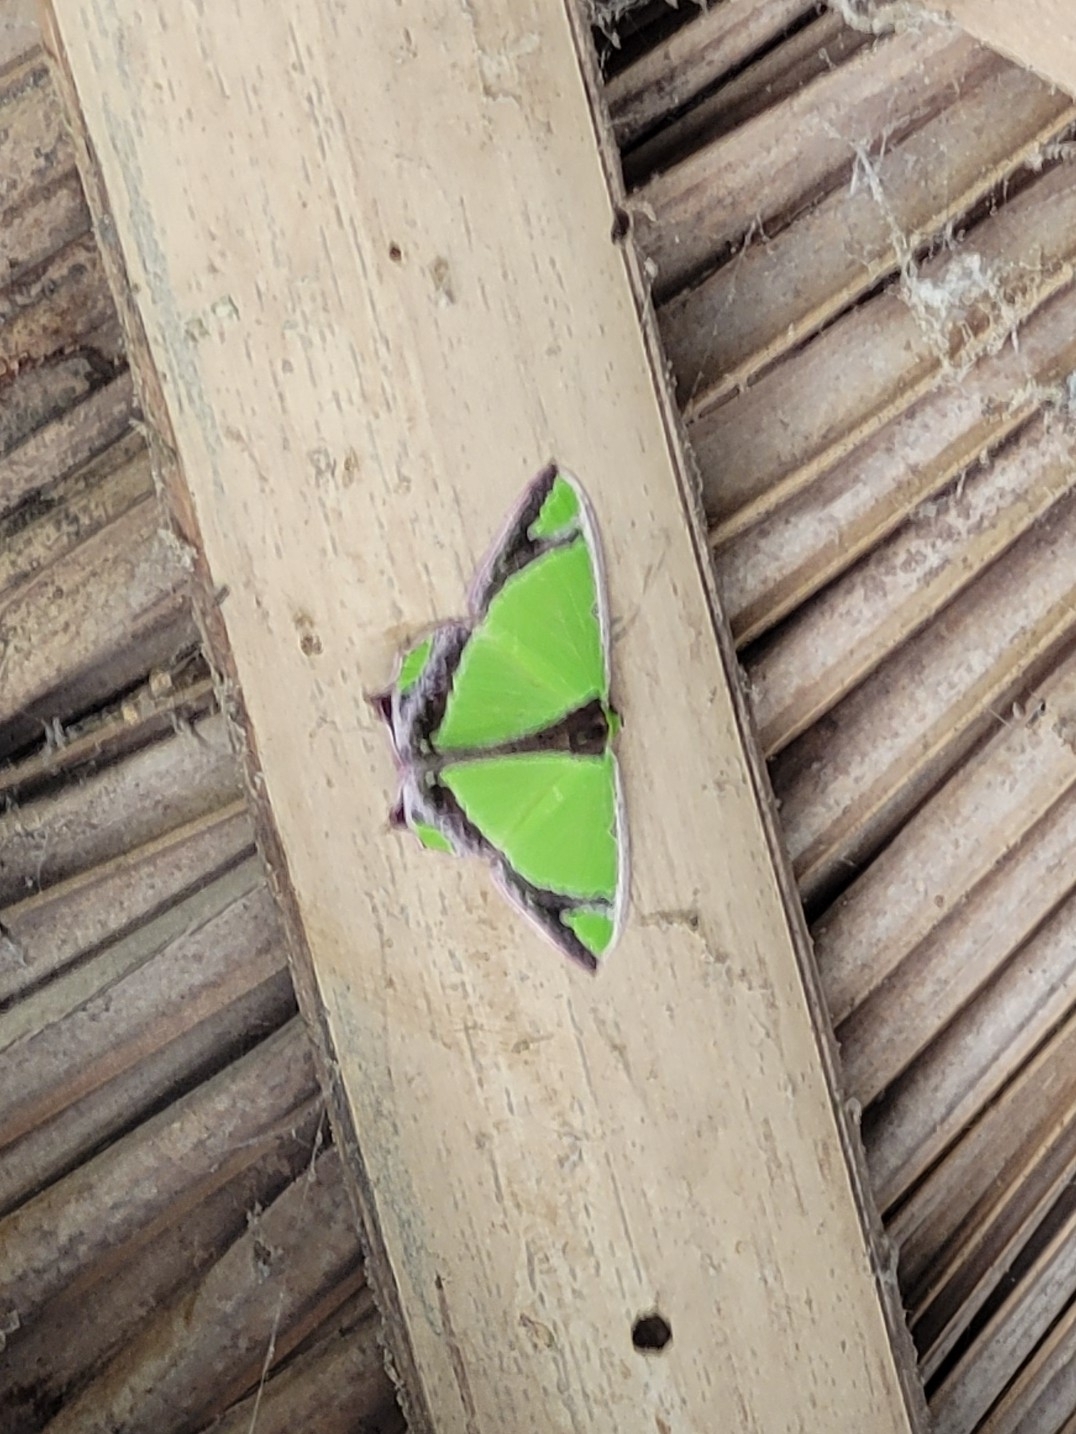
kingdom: Animalia
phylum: Arthropoda
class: Insecta
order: Lepidoptera
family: Geometridae
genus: Agathia
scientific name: Agathia laetata
